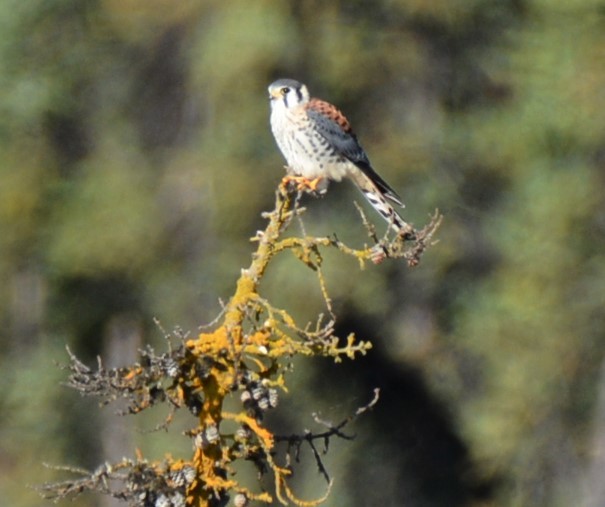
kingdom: Animalia
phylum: Chordata
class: Aves
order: Falconiformes
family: Falconidae
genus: Falco
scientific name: Falco sparverius
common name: American kestrel
